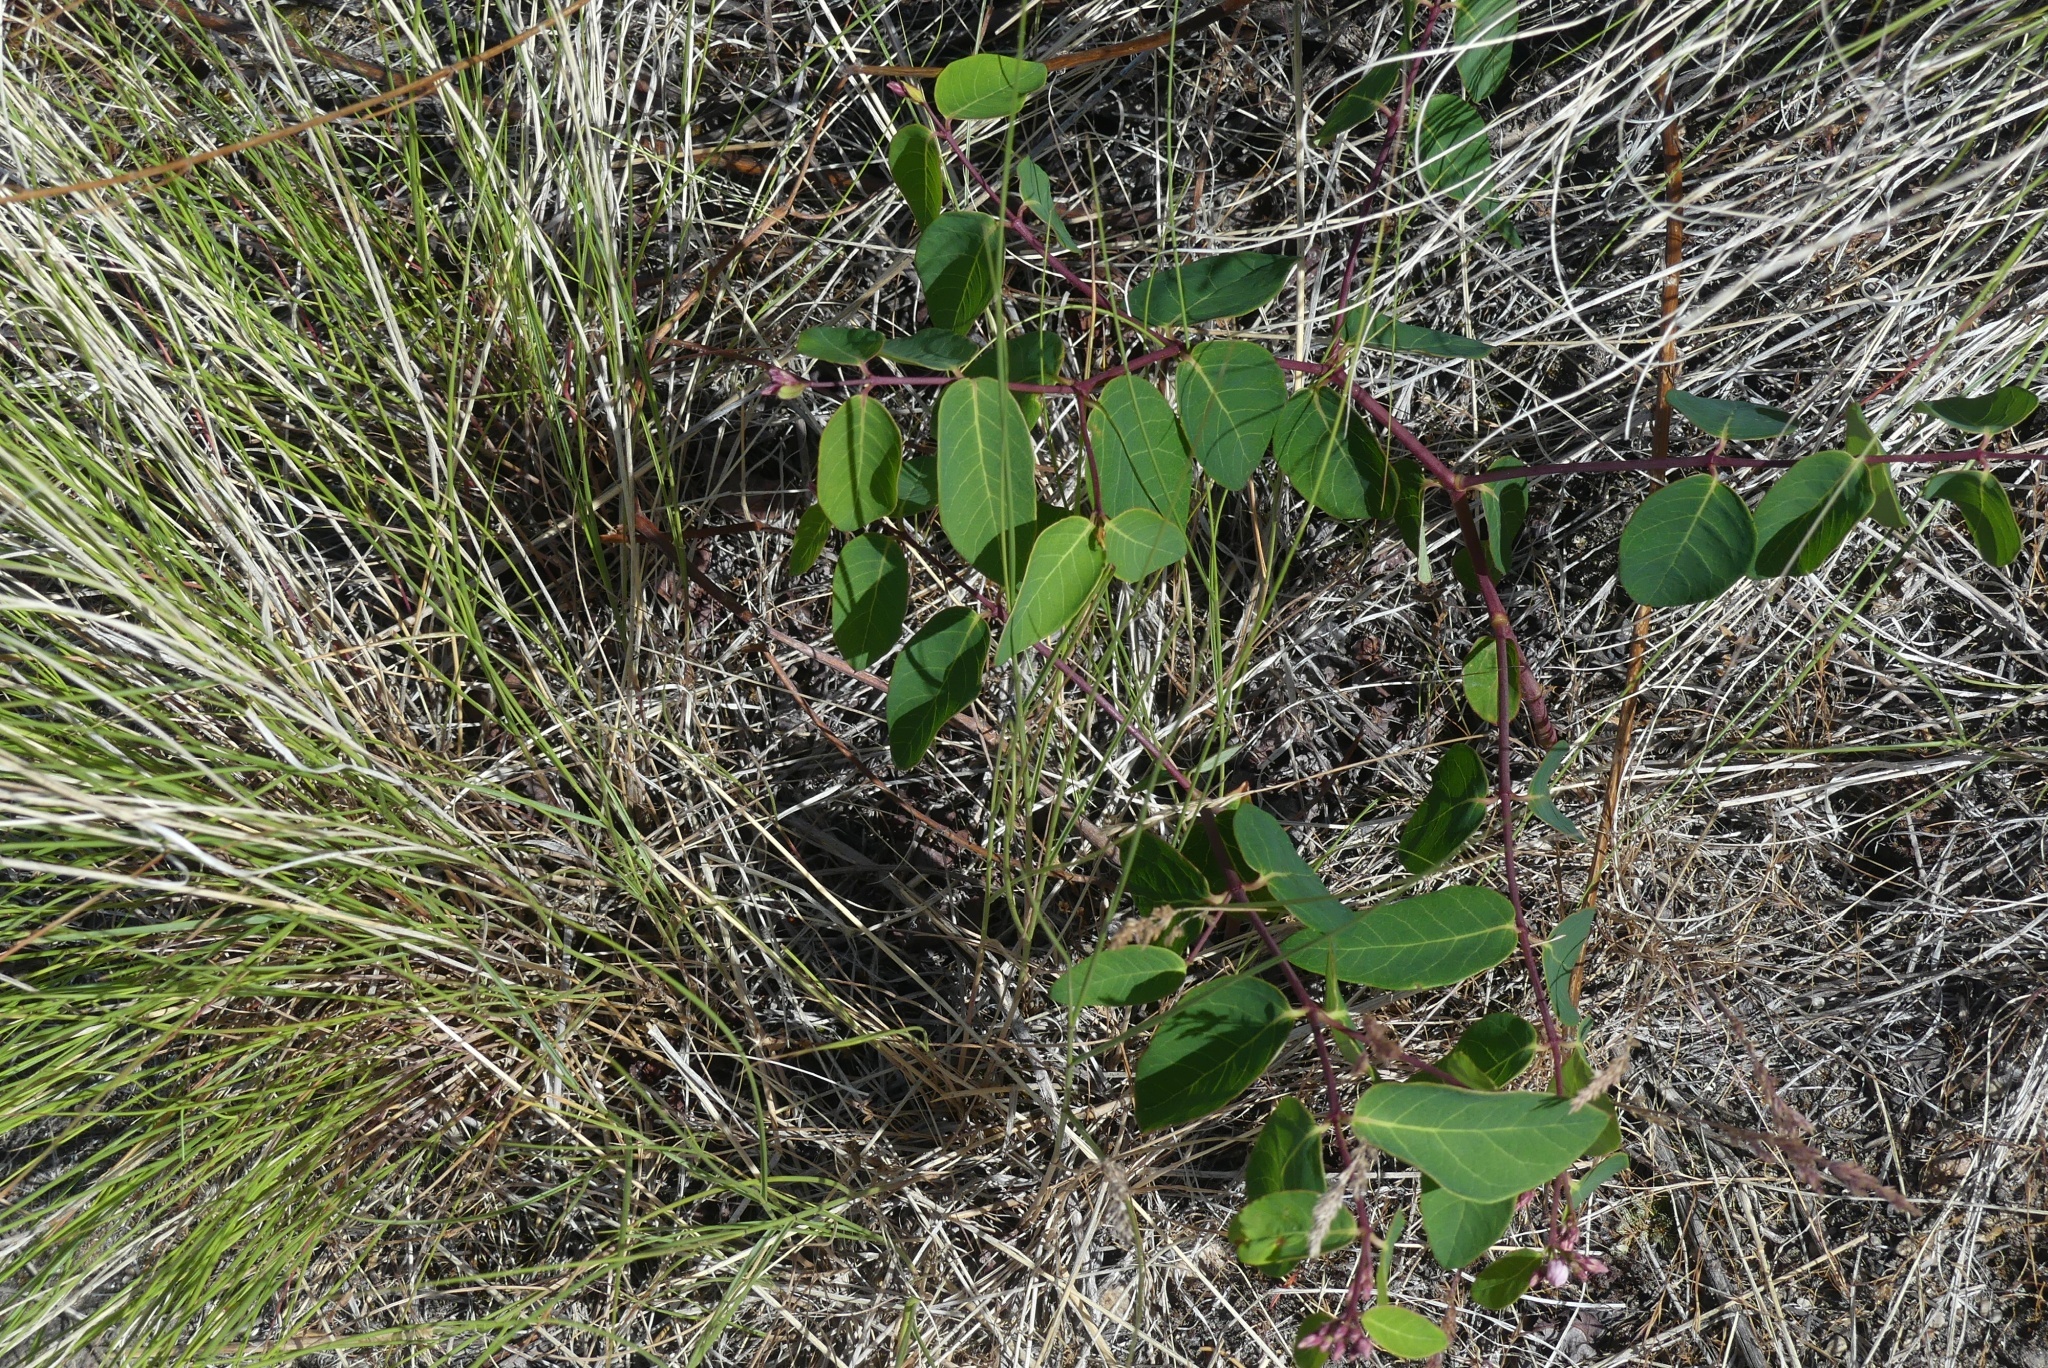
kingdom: Plantae
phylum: Tracheophyta
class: Magnoliopsida
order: Gentianales
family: Apocynaceae
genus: Apocynum
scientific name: Apocynum androsaemifolium
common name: Spreading dogbane
